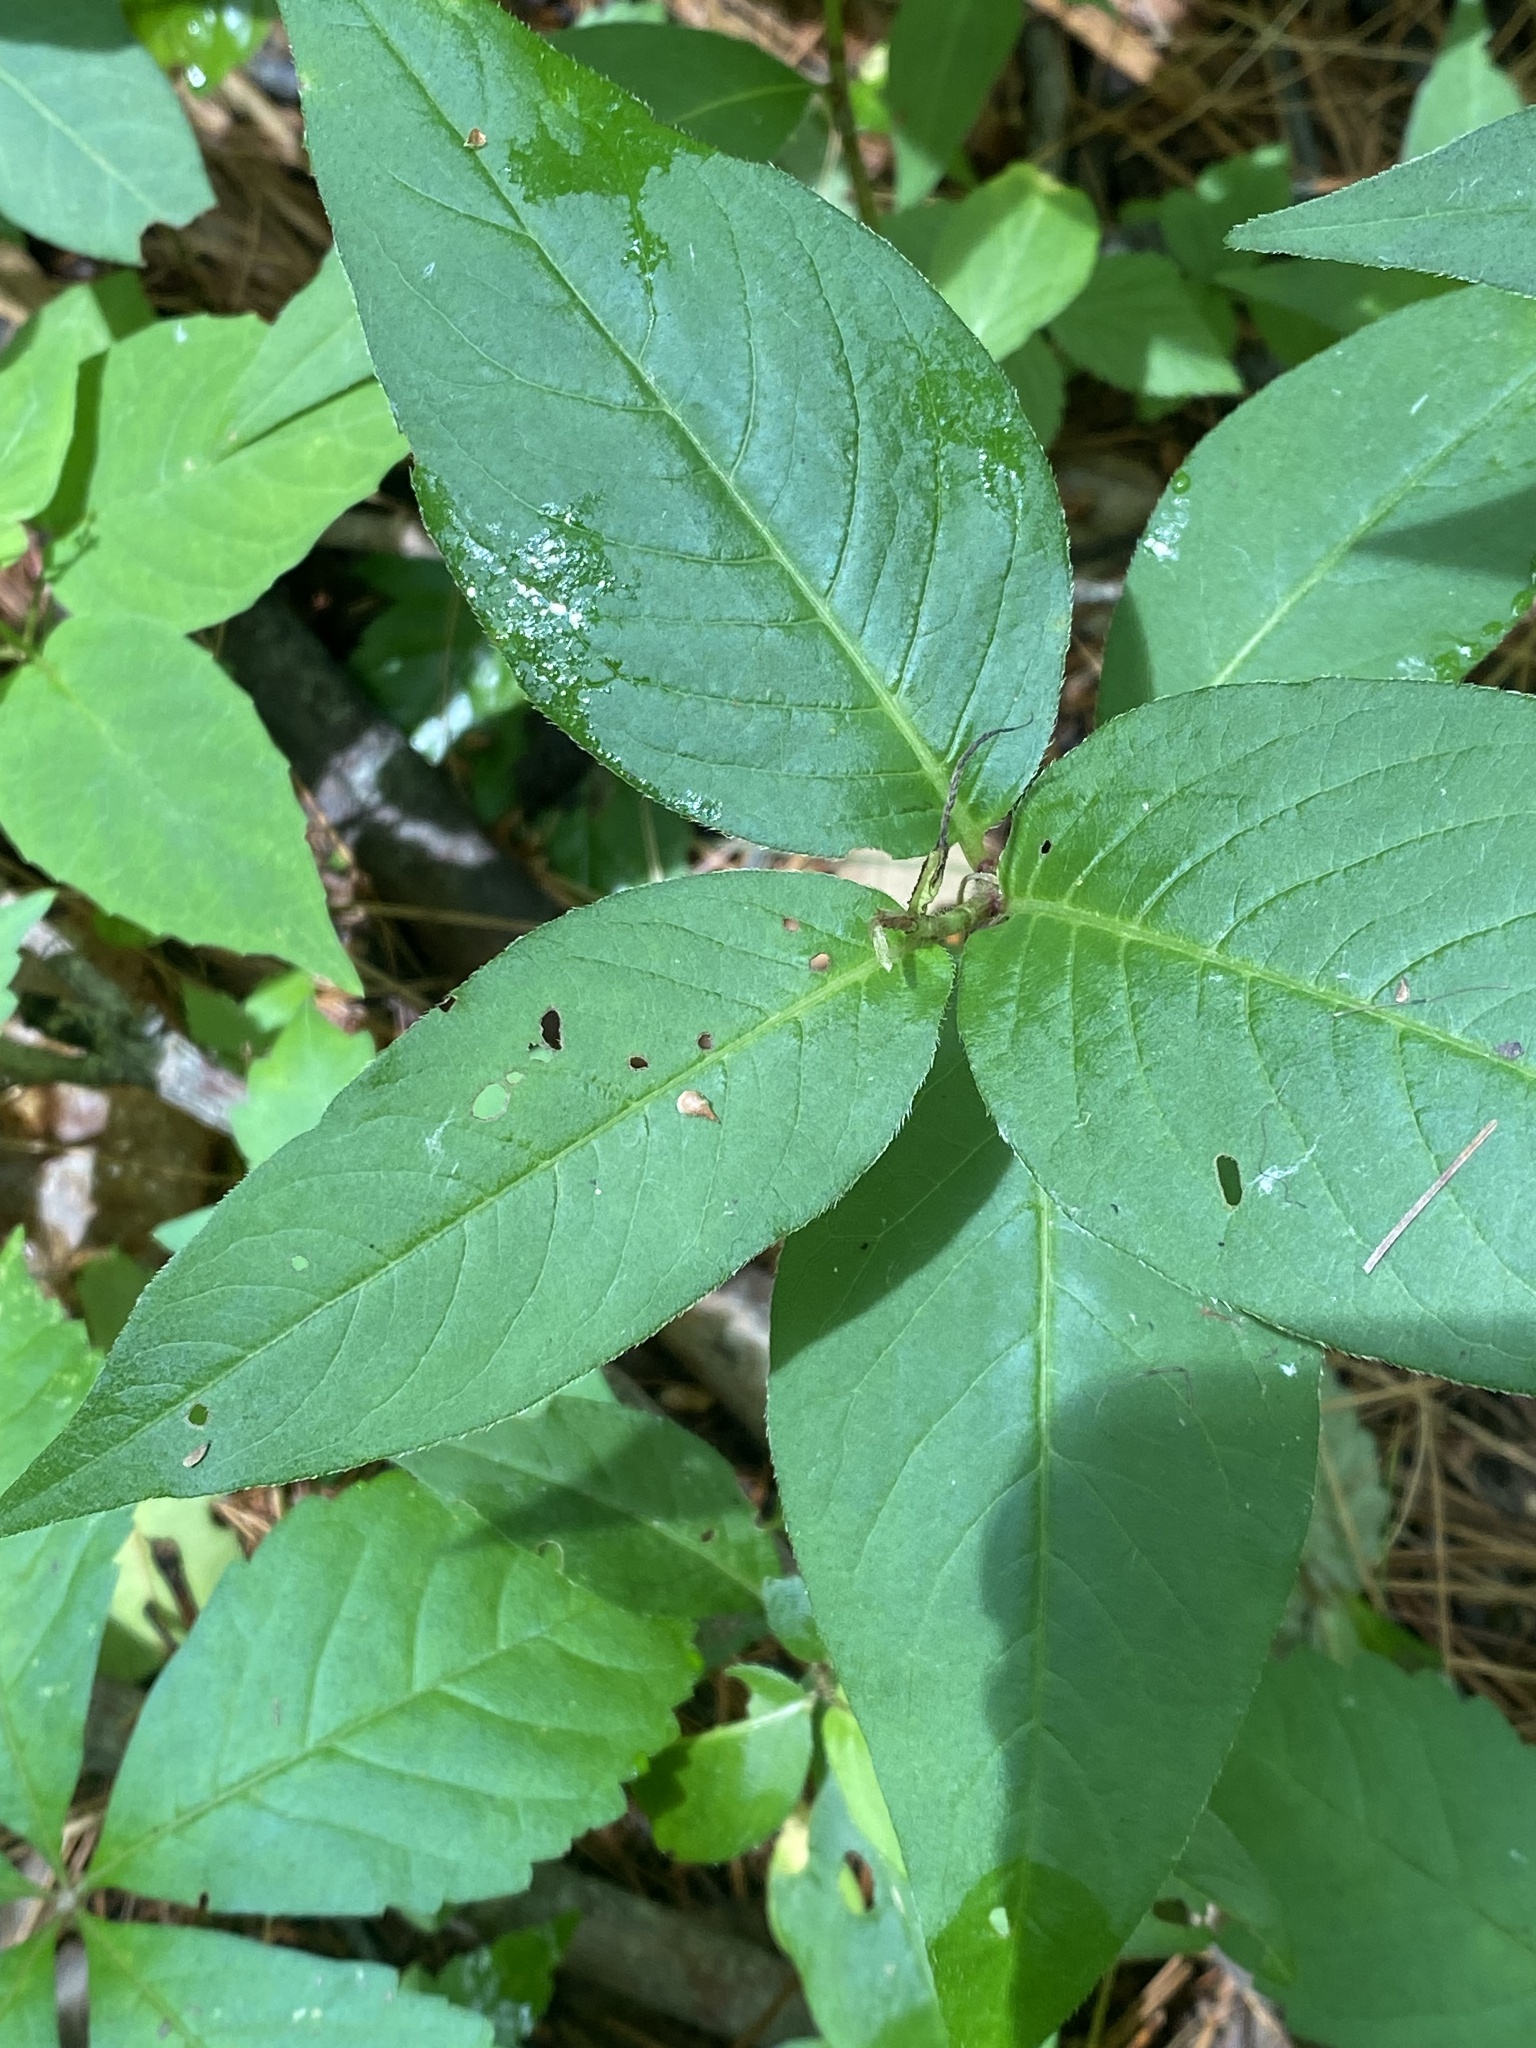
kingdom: Plantae
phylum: Tracheophyta
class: Magnoliopsida
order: Caryophyllales
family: Polygonaceae
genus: Persicaria
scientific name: Persicaria virginiana
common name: Jumpseed
